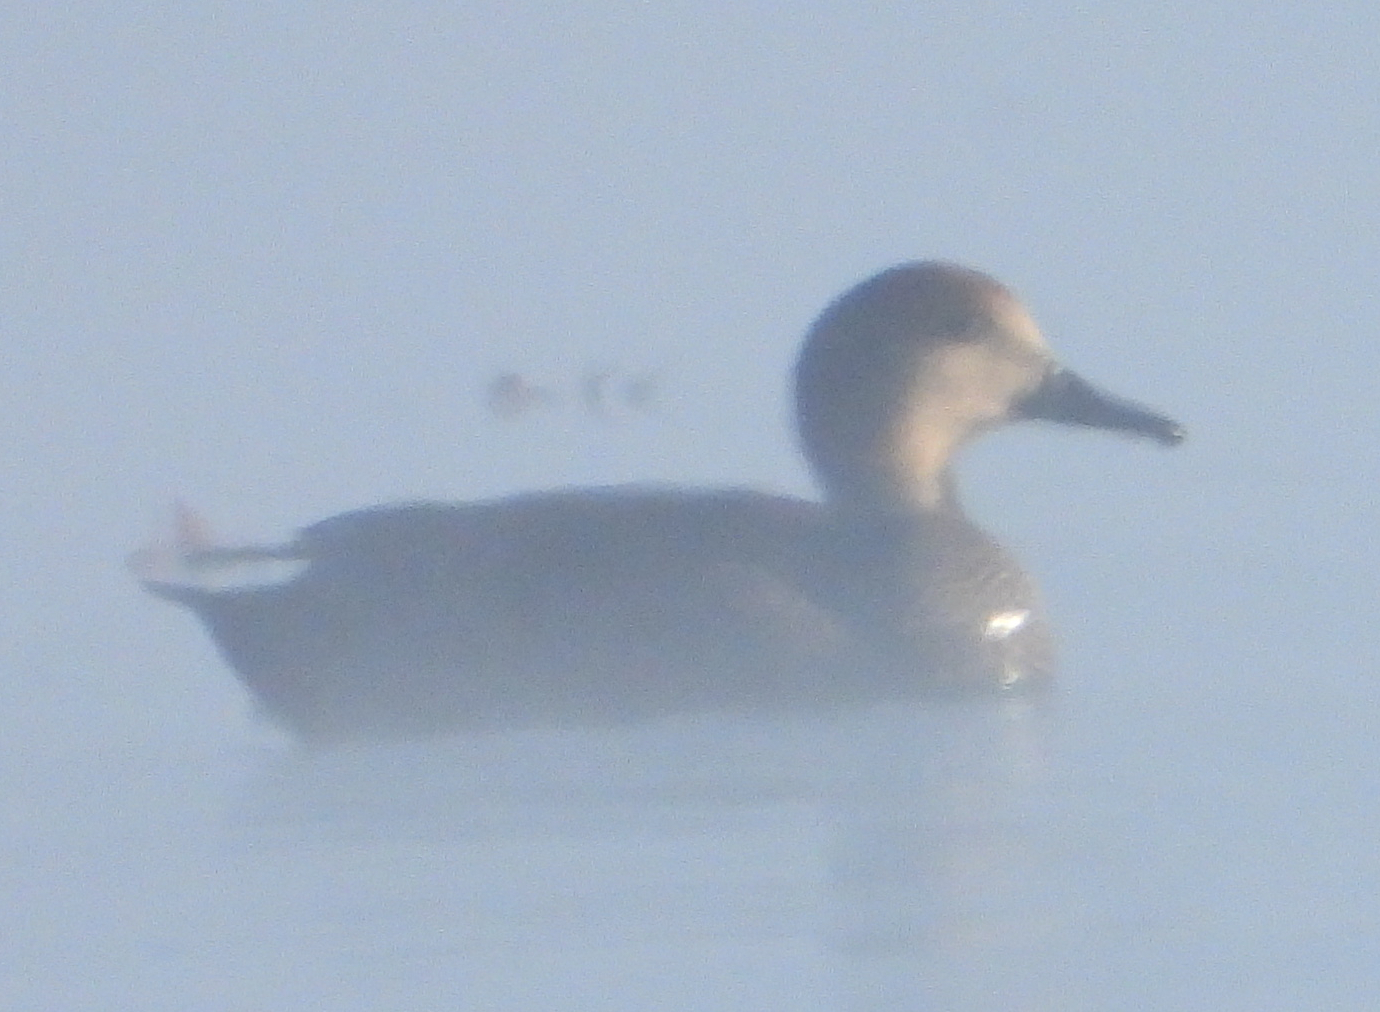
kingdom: Animalia
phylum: Chordata
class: Aves
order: Anseriformes
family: Anatidae
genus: Mareca
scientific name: Mareca strepera
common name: Gadwall
